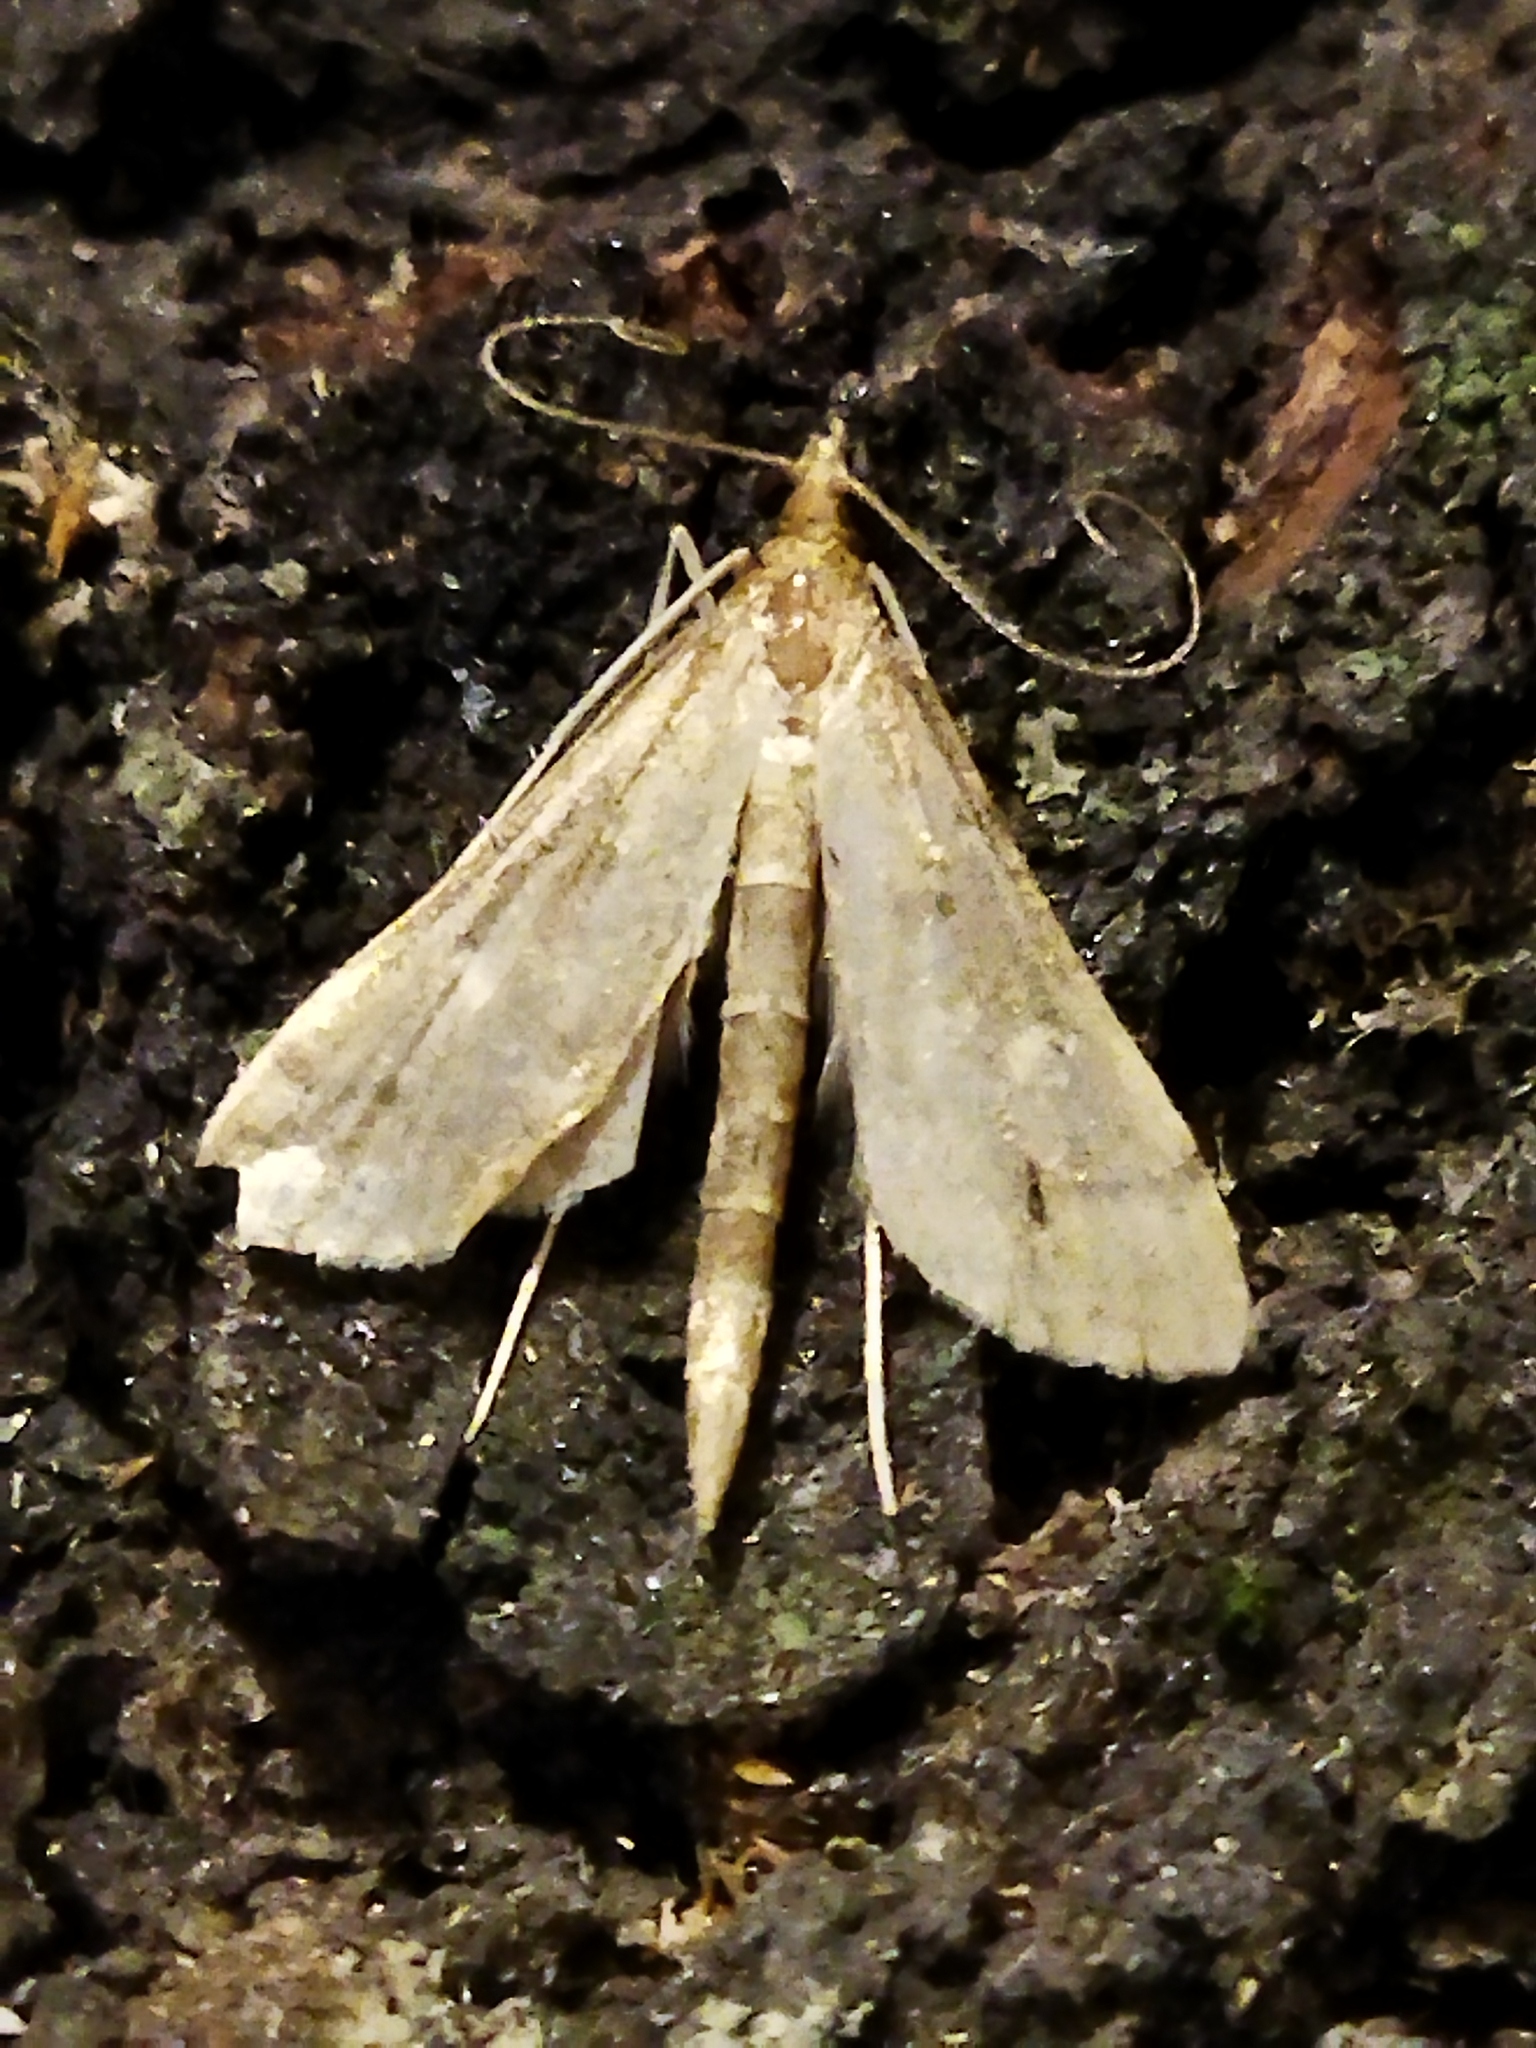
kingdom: Animalia
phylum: Arthropoda
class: Insecta
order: Lepidoptera
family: Crambidae
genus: Stenia
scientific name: Stenia Dolicharthria punctalis
